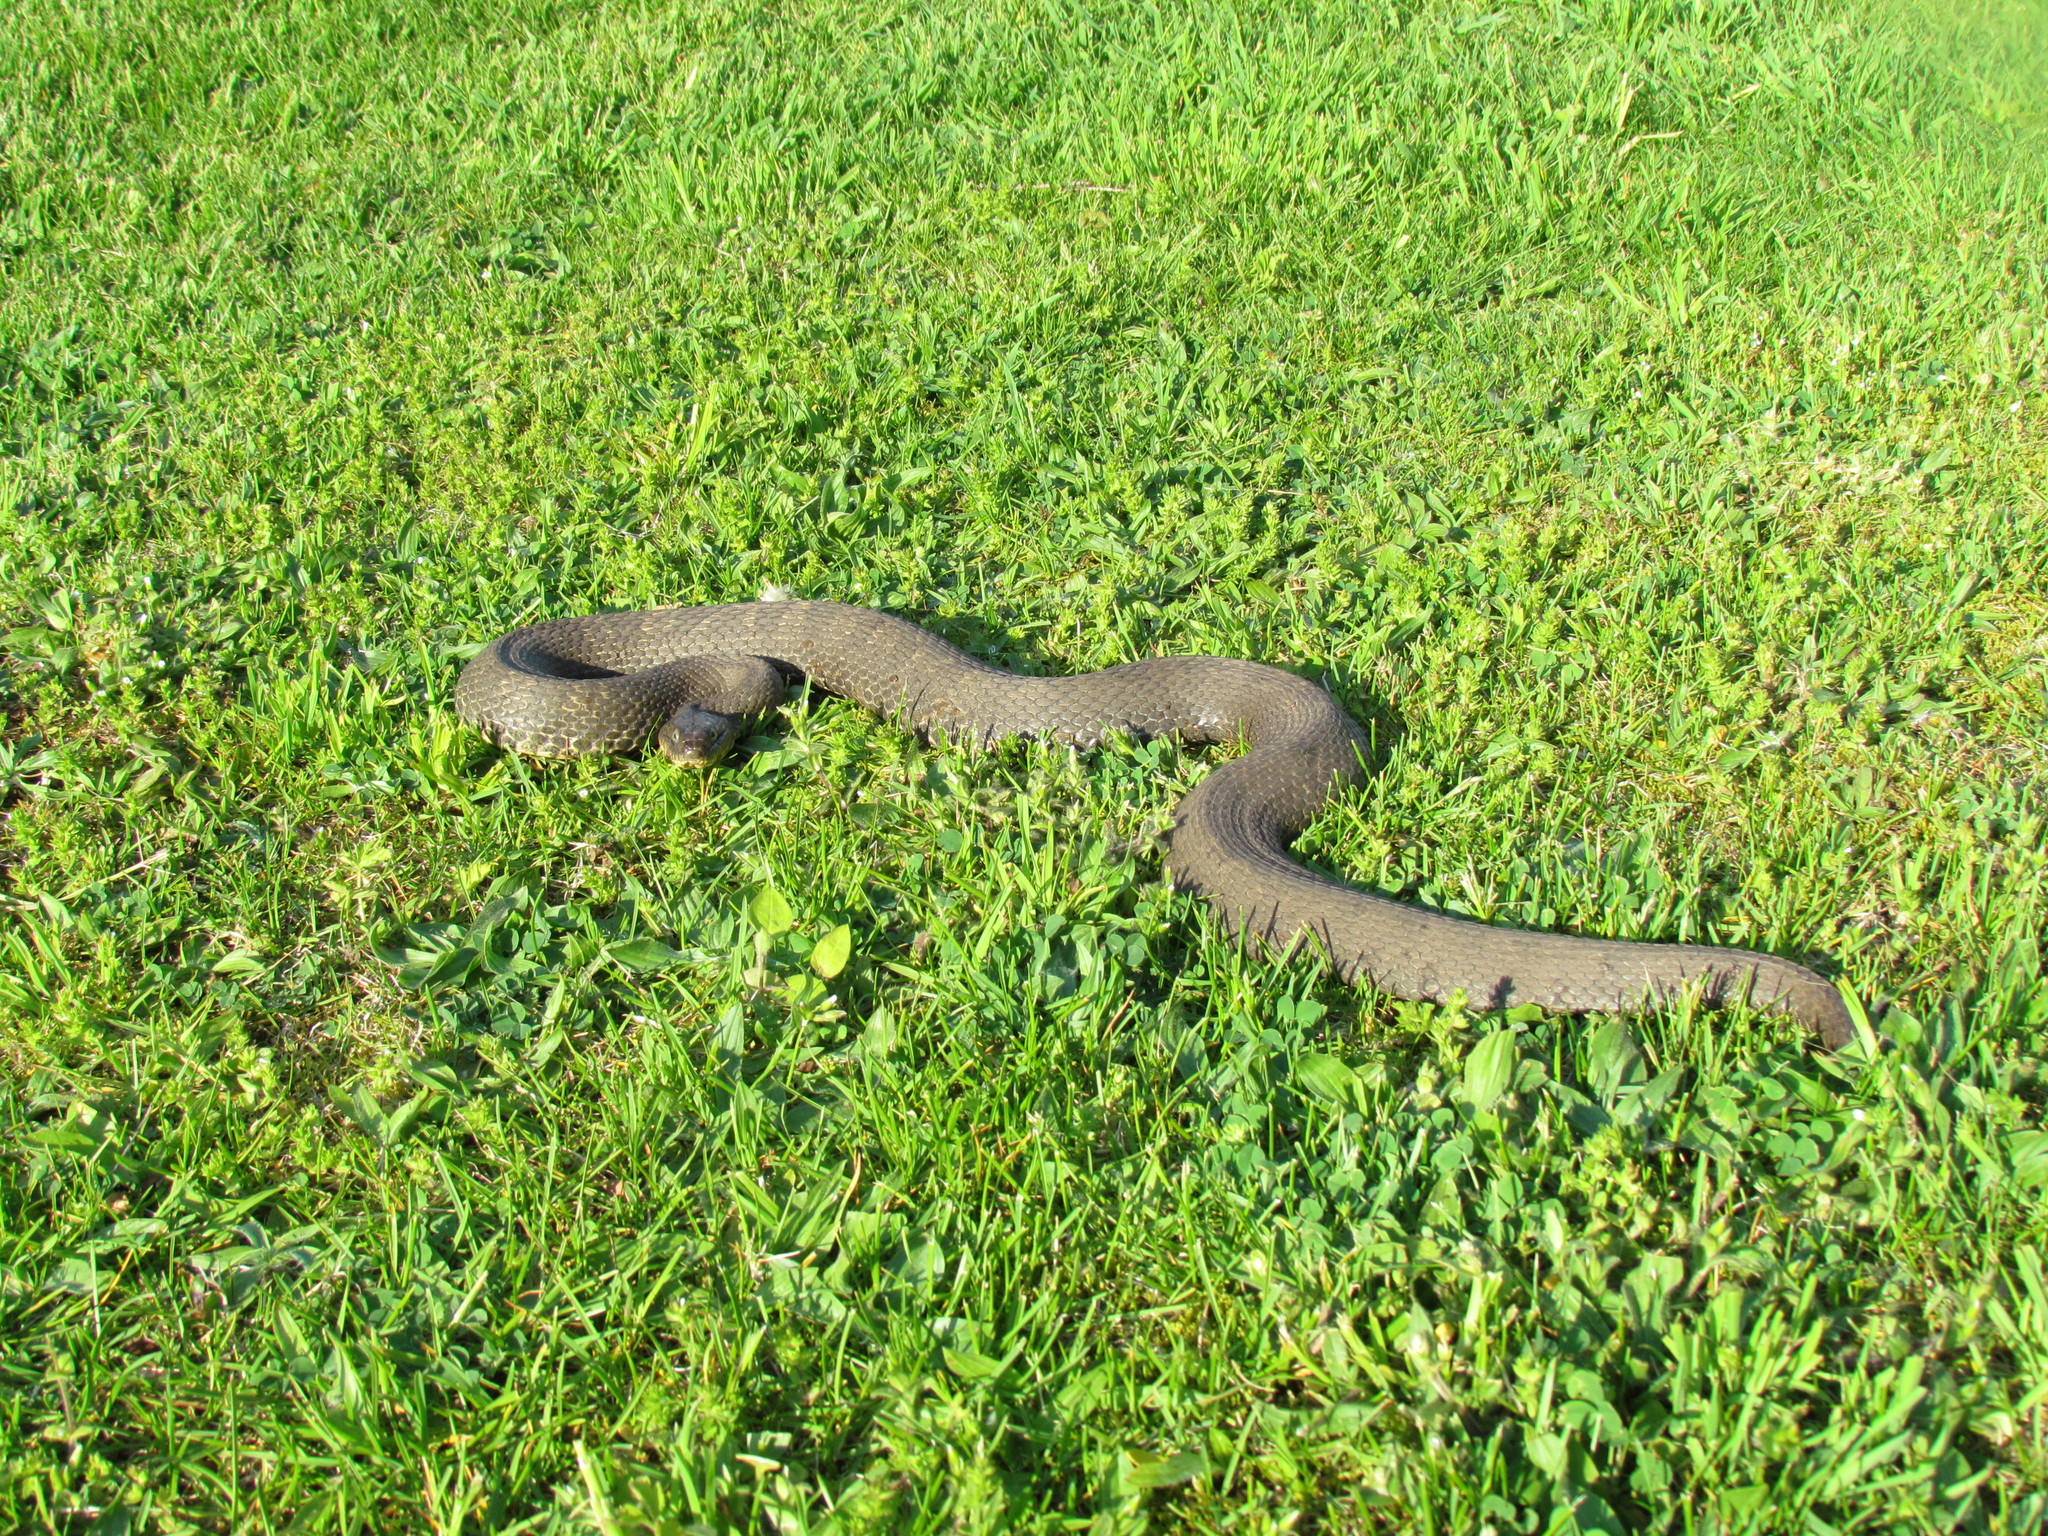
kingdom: Animalia
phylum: Chordata
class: Squamata
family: Colubridae
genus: Nerodia
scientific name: Nerodia sipedon
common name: Northern water snake
